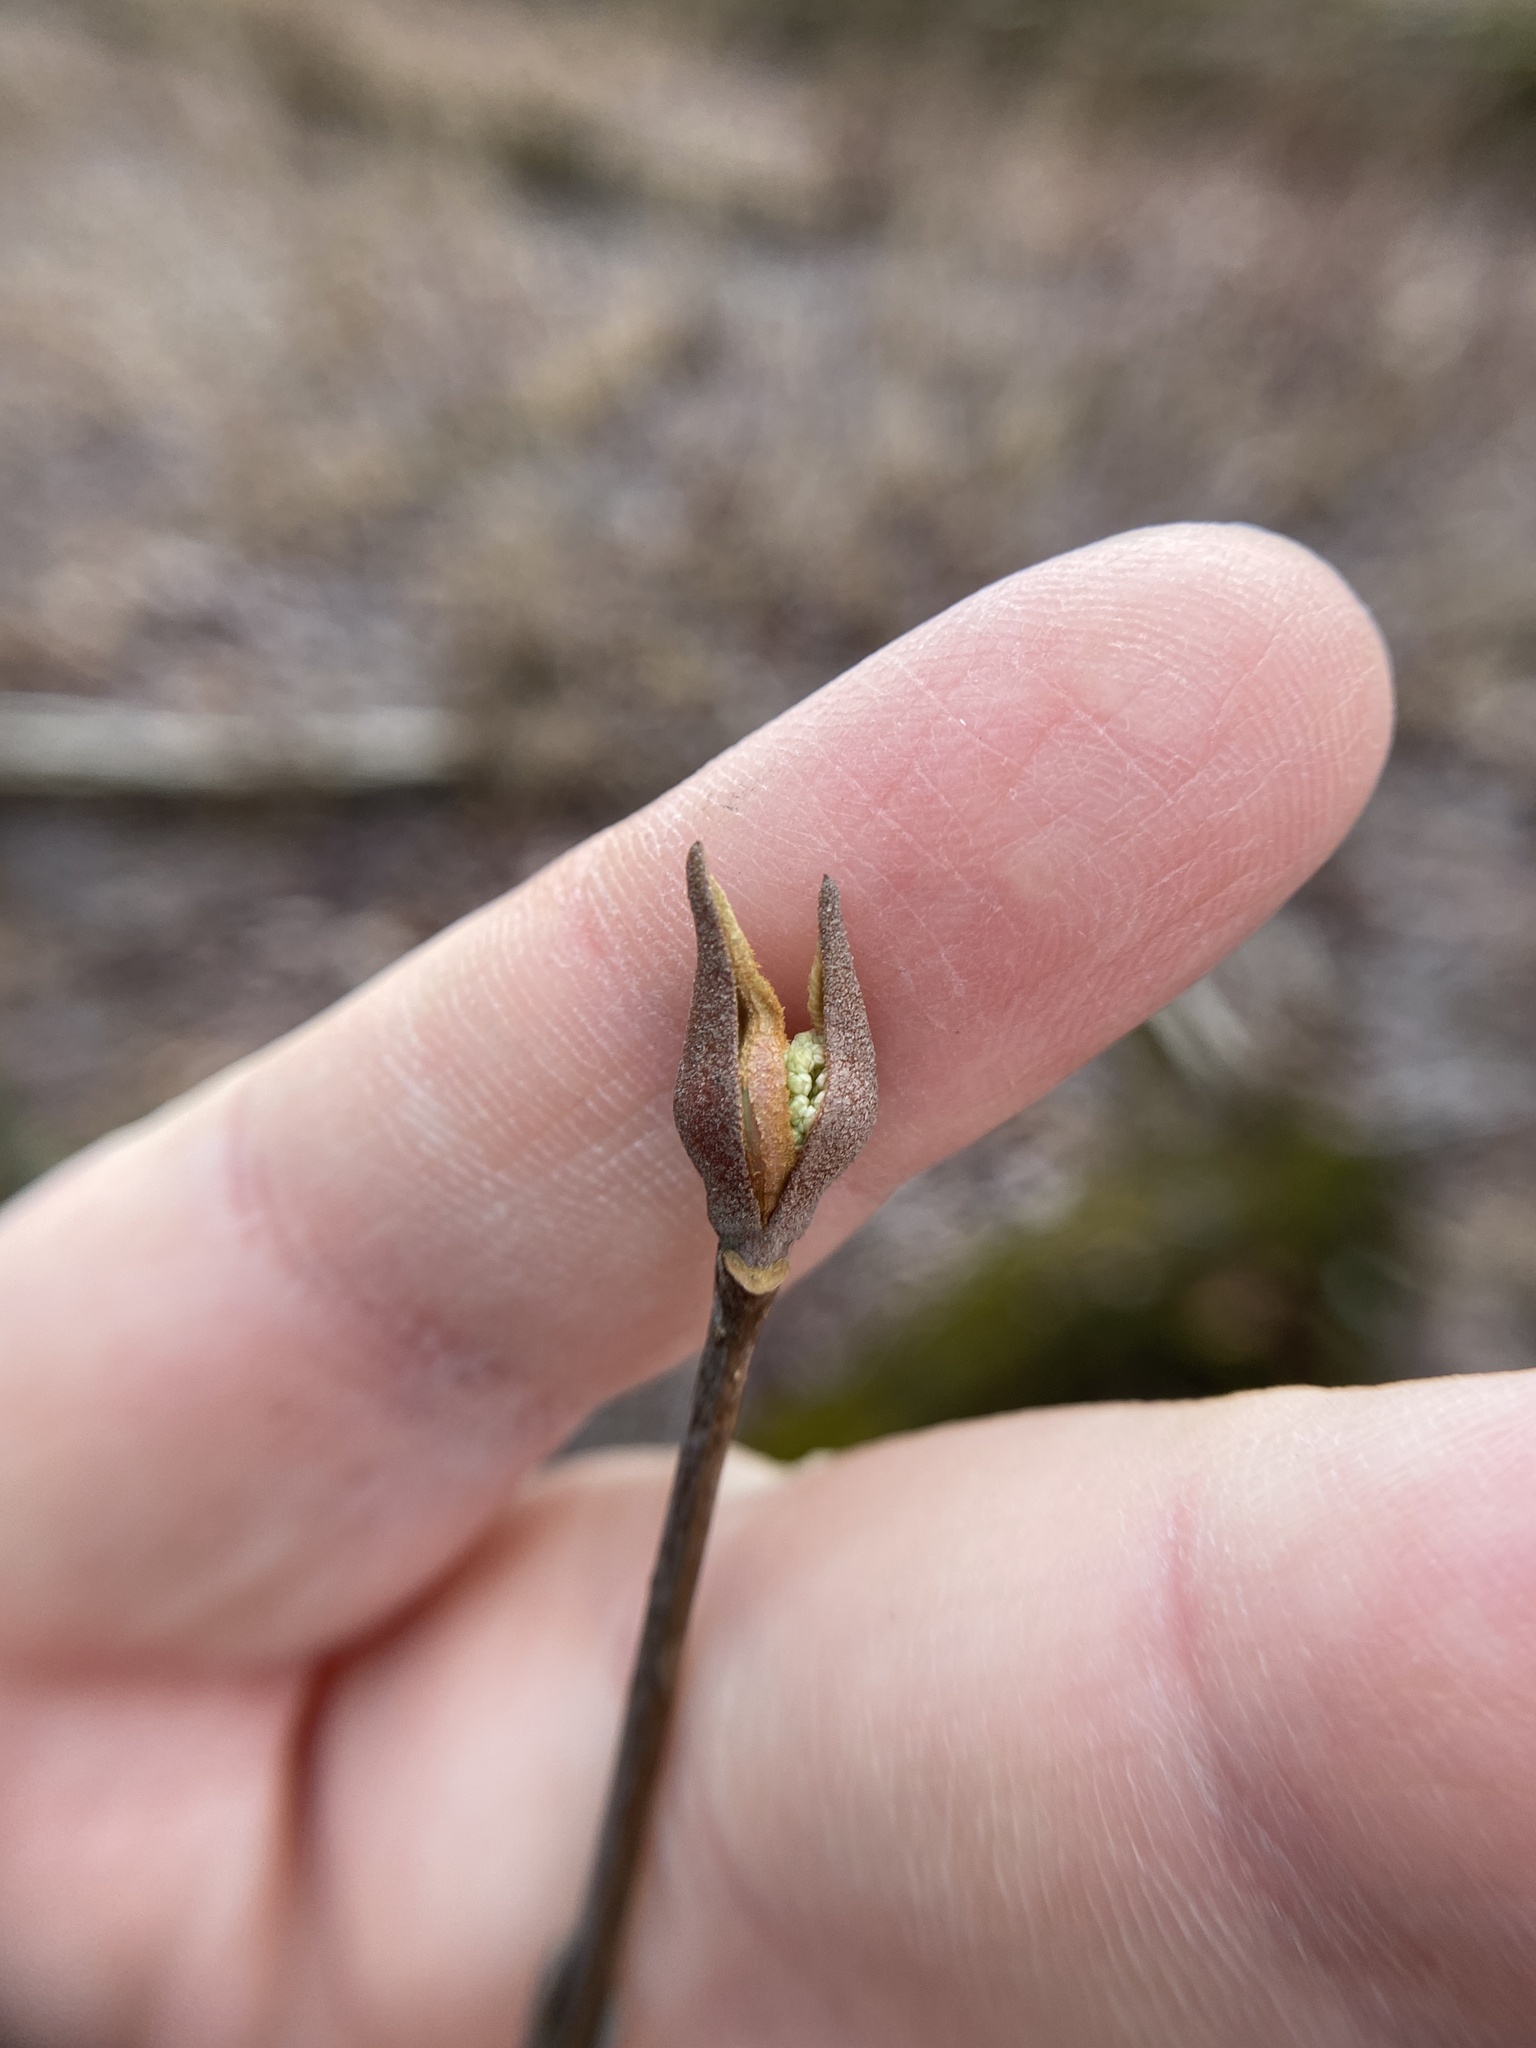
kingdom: Plantae
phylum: Tracheophyta
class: Magnoliopsida
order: Dipsacales
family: Viburnaceae
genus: Viburnum
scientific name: Viburnum prunifolium
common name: Black haw
